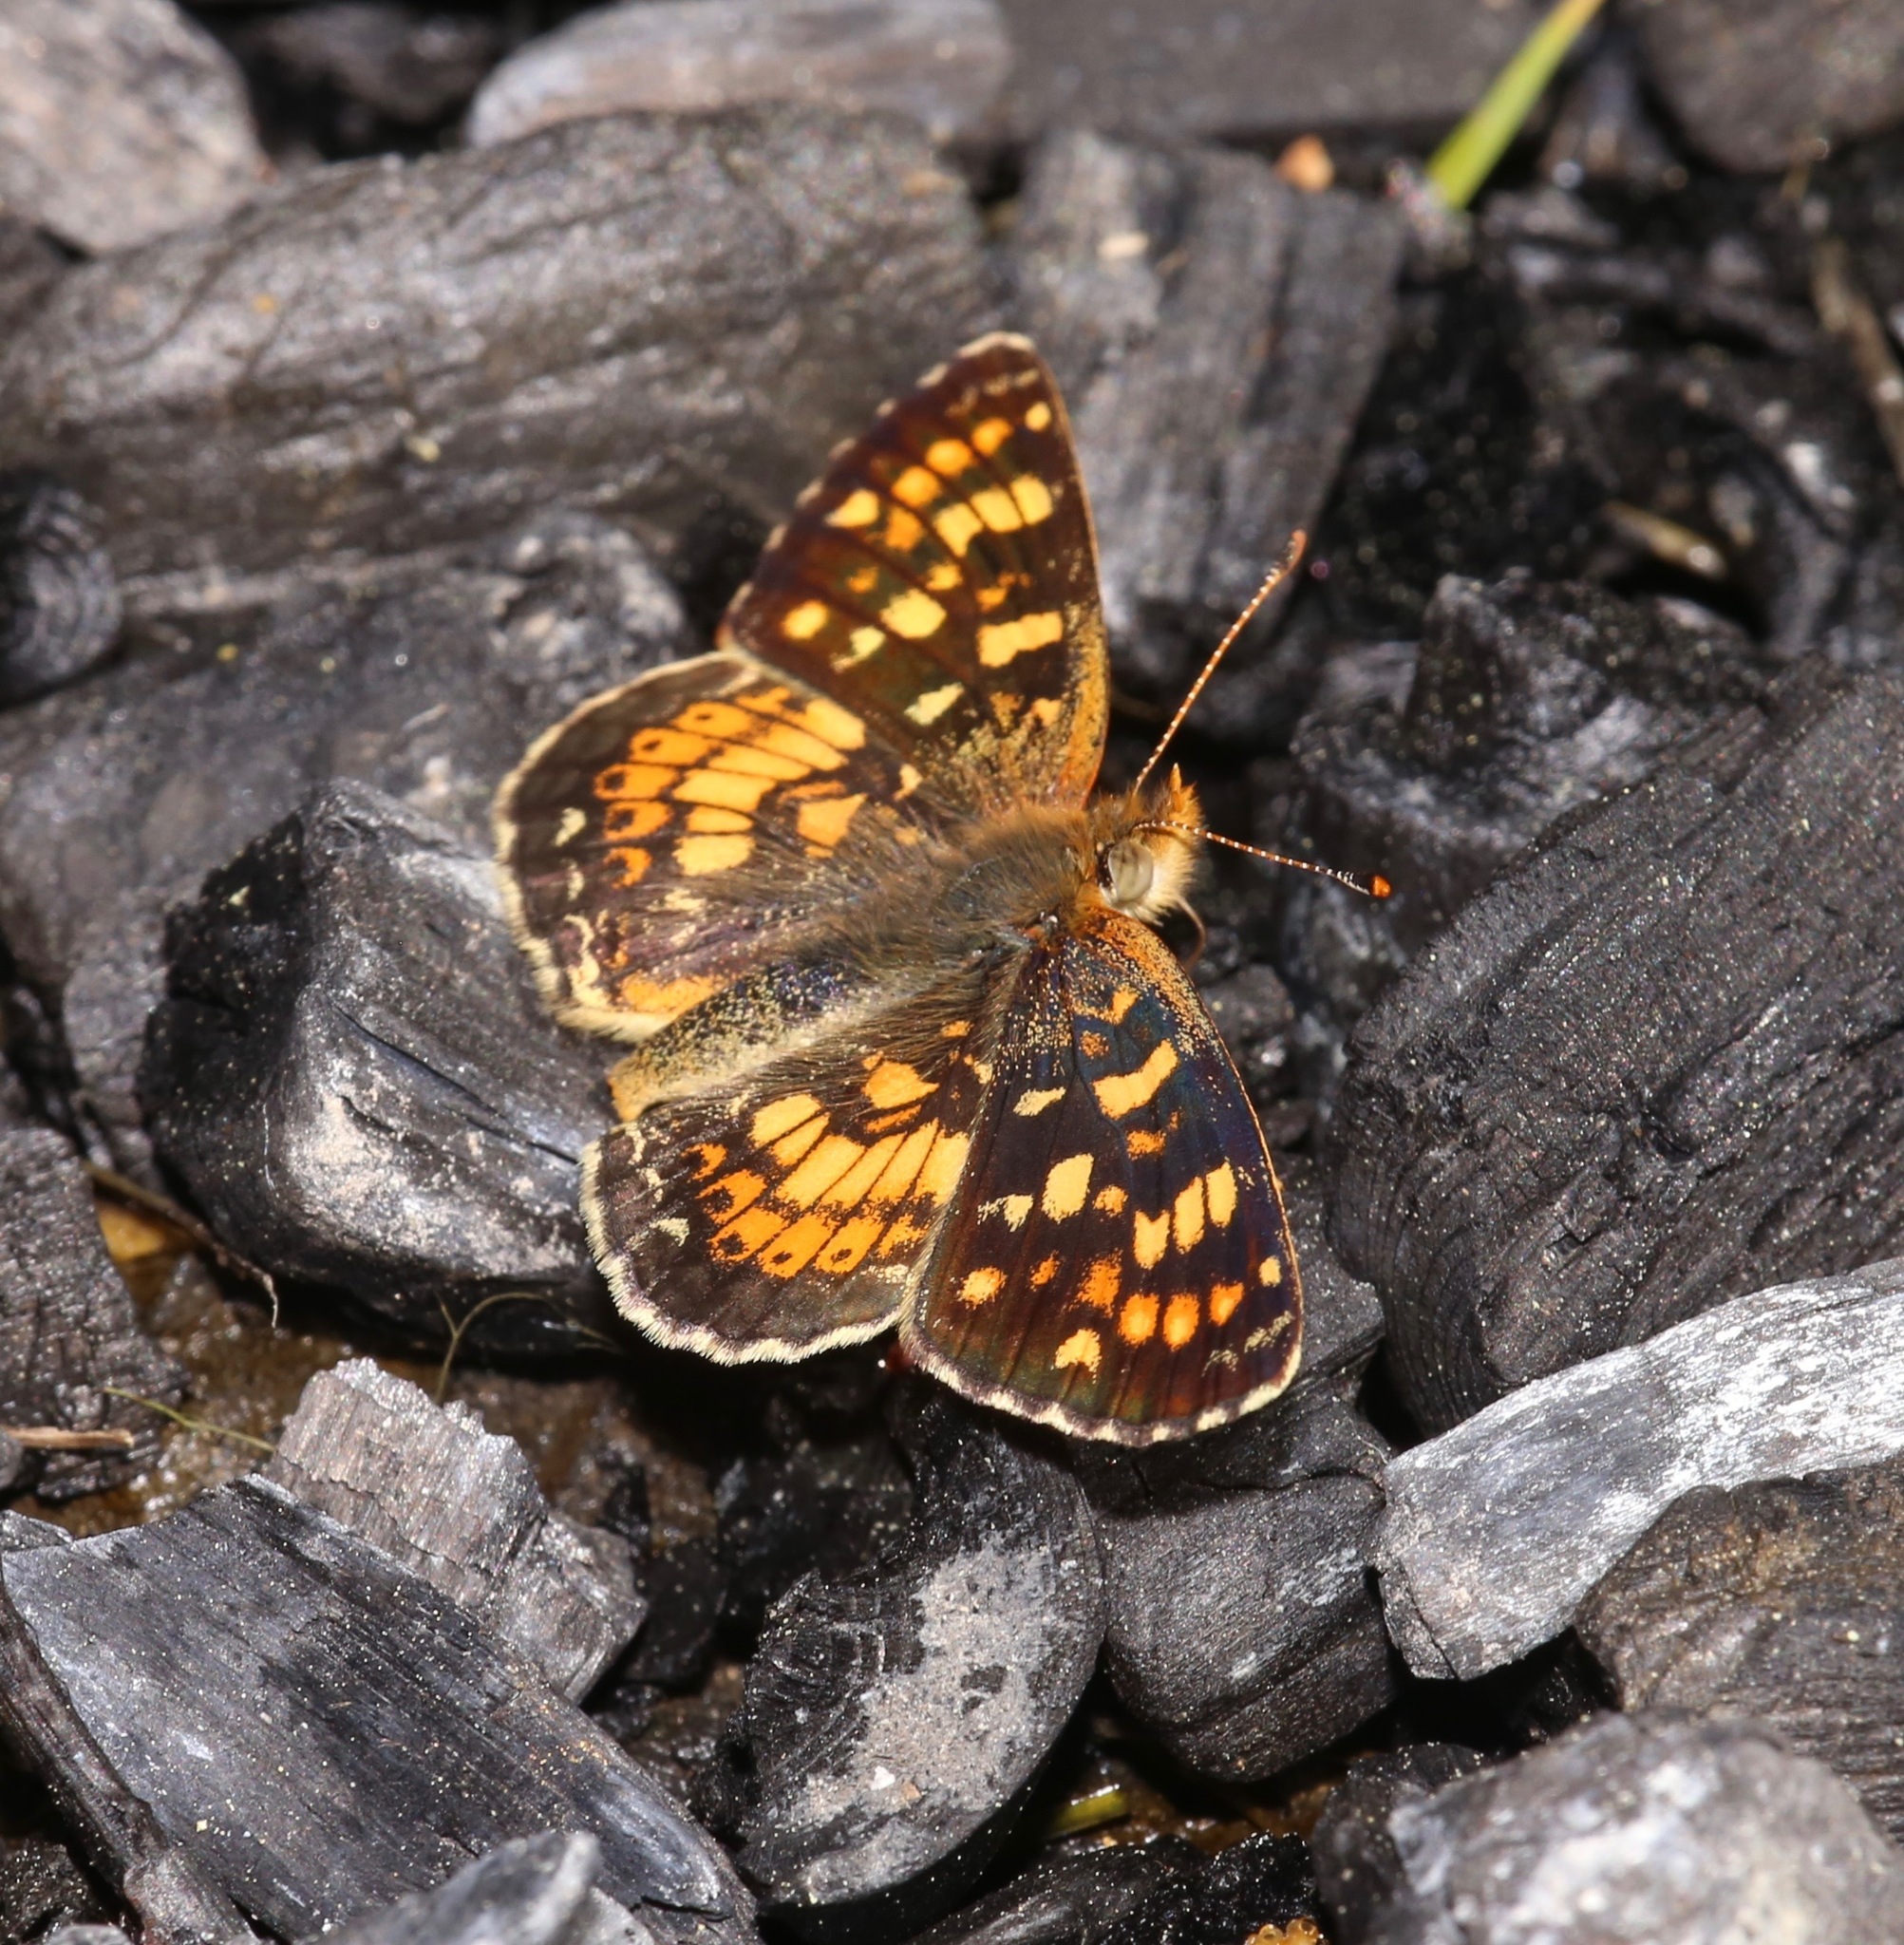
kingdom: Animalia
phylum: Arthropoda
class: Insecta
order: Lepidoptera
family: Nymphalidae
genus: Phyciodes
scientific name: Phyciodes tharos
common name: Pearl crescent
